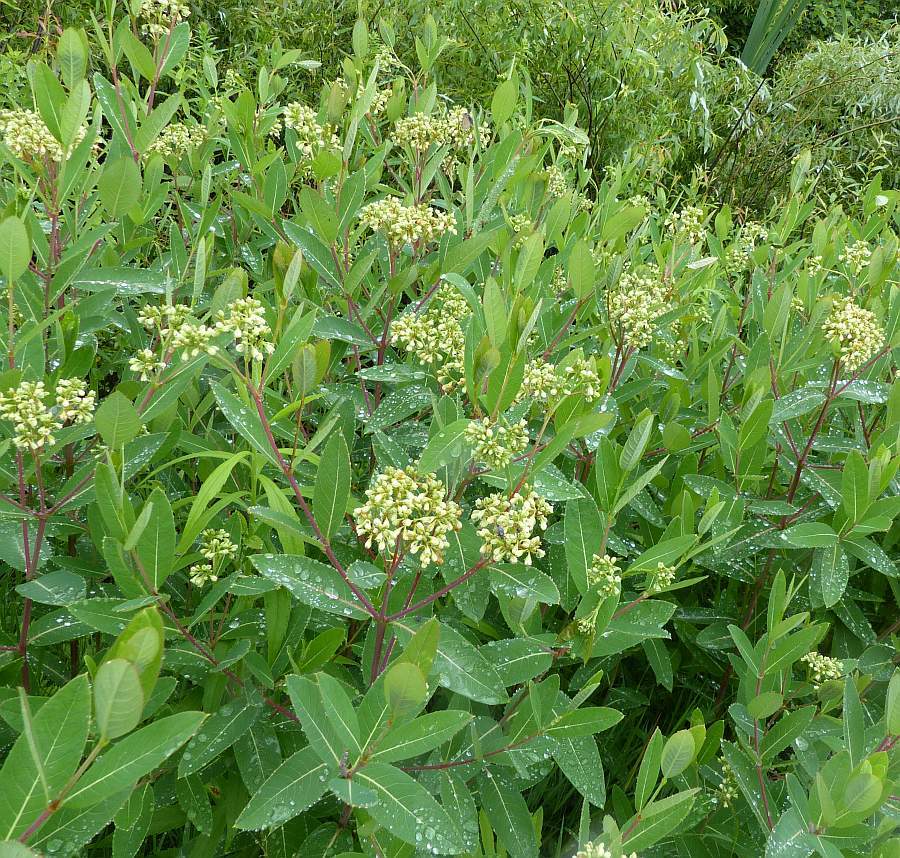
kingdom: Plantae
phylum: Tracheophyta
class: Magnoliopsida
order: Gentianales
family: Apocynaceae
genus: Apocynum
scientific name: Apocynum cannabinum
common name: Hemp dogbane
